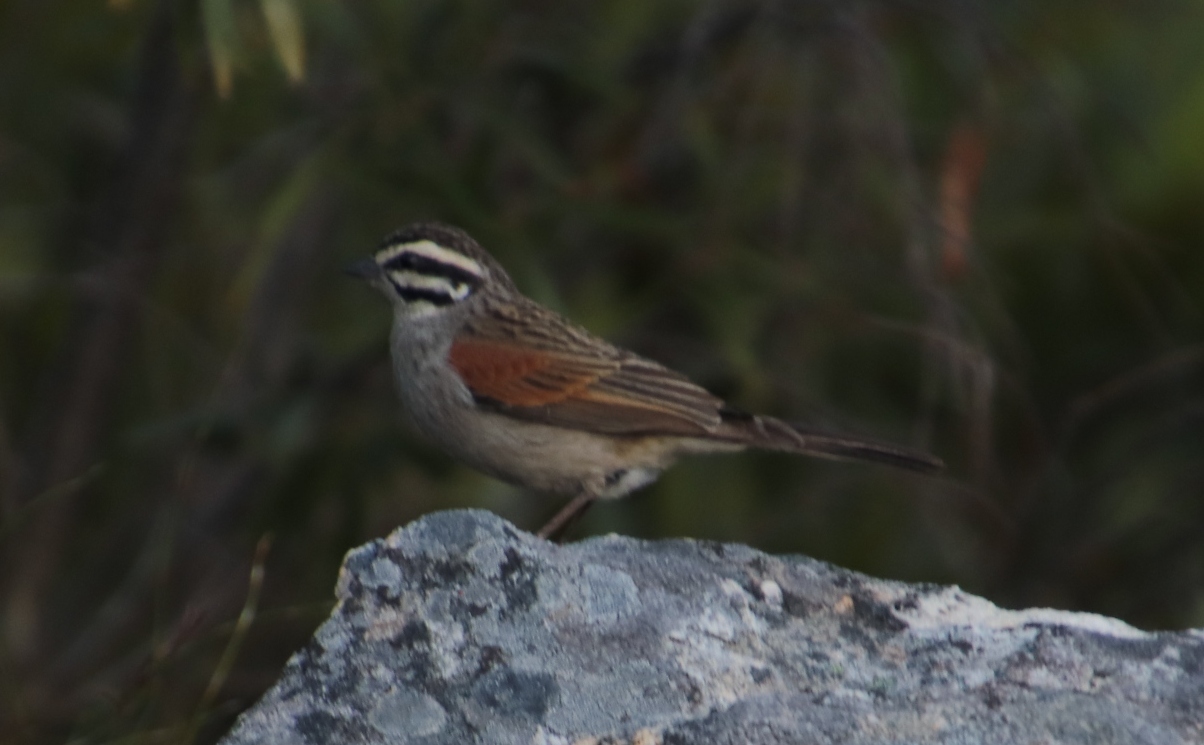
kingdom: Animalia
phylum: Chordata
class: Aves
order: Passeriformes
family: Emberizidae
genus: Emberiza
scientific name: Emberiza capensis
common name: Cape bunting
